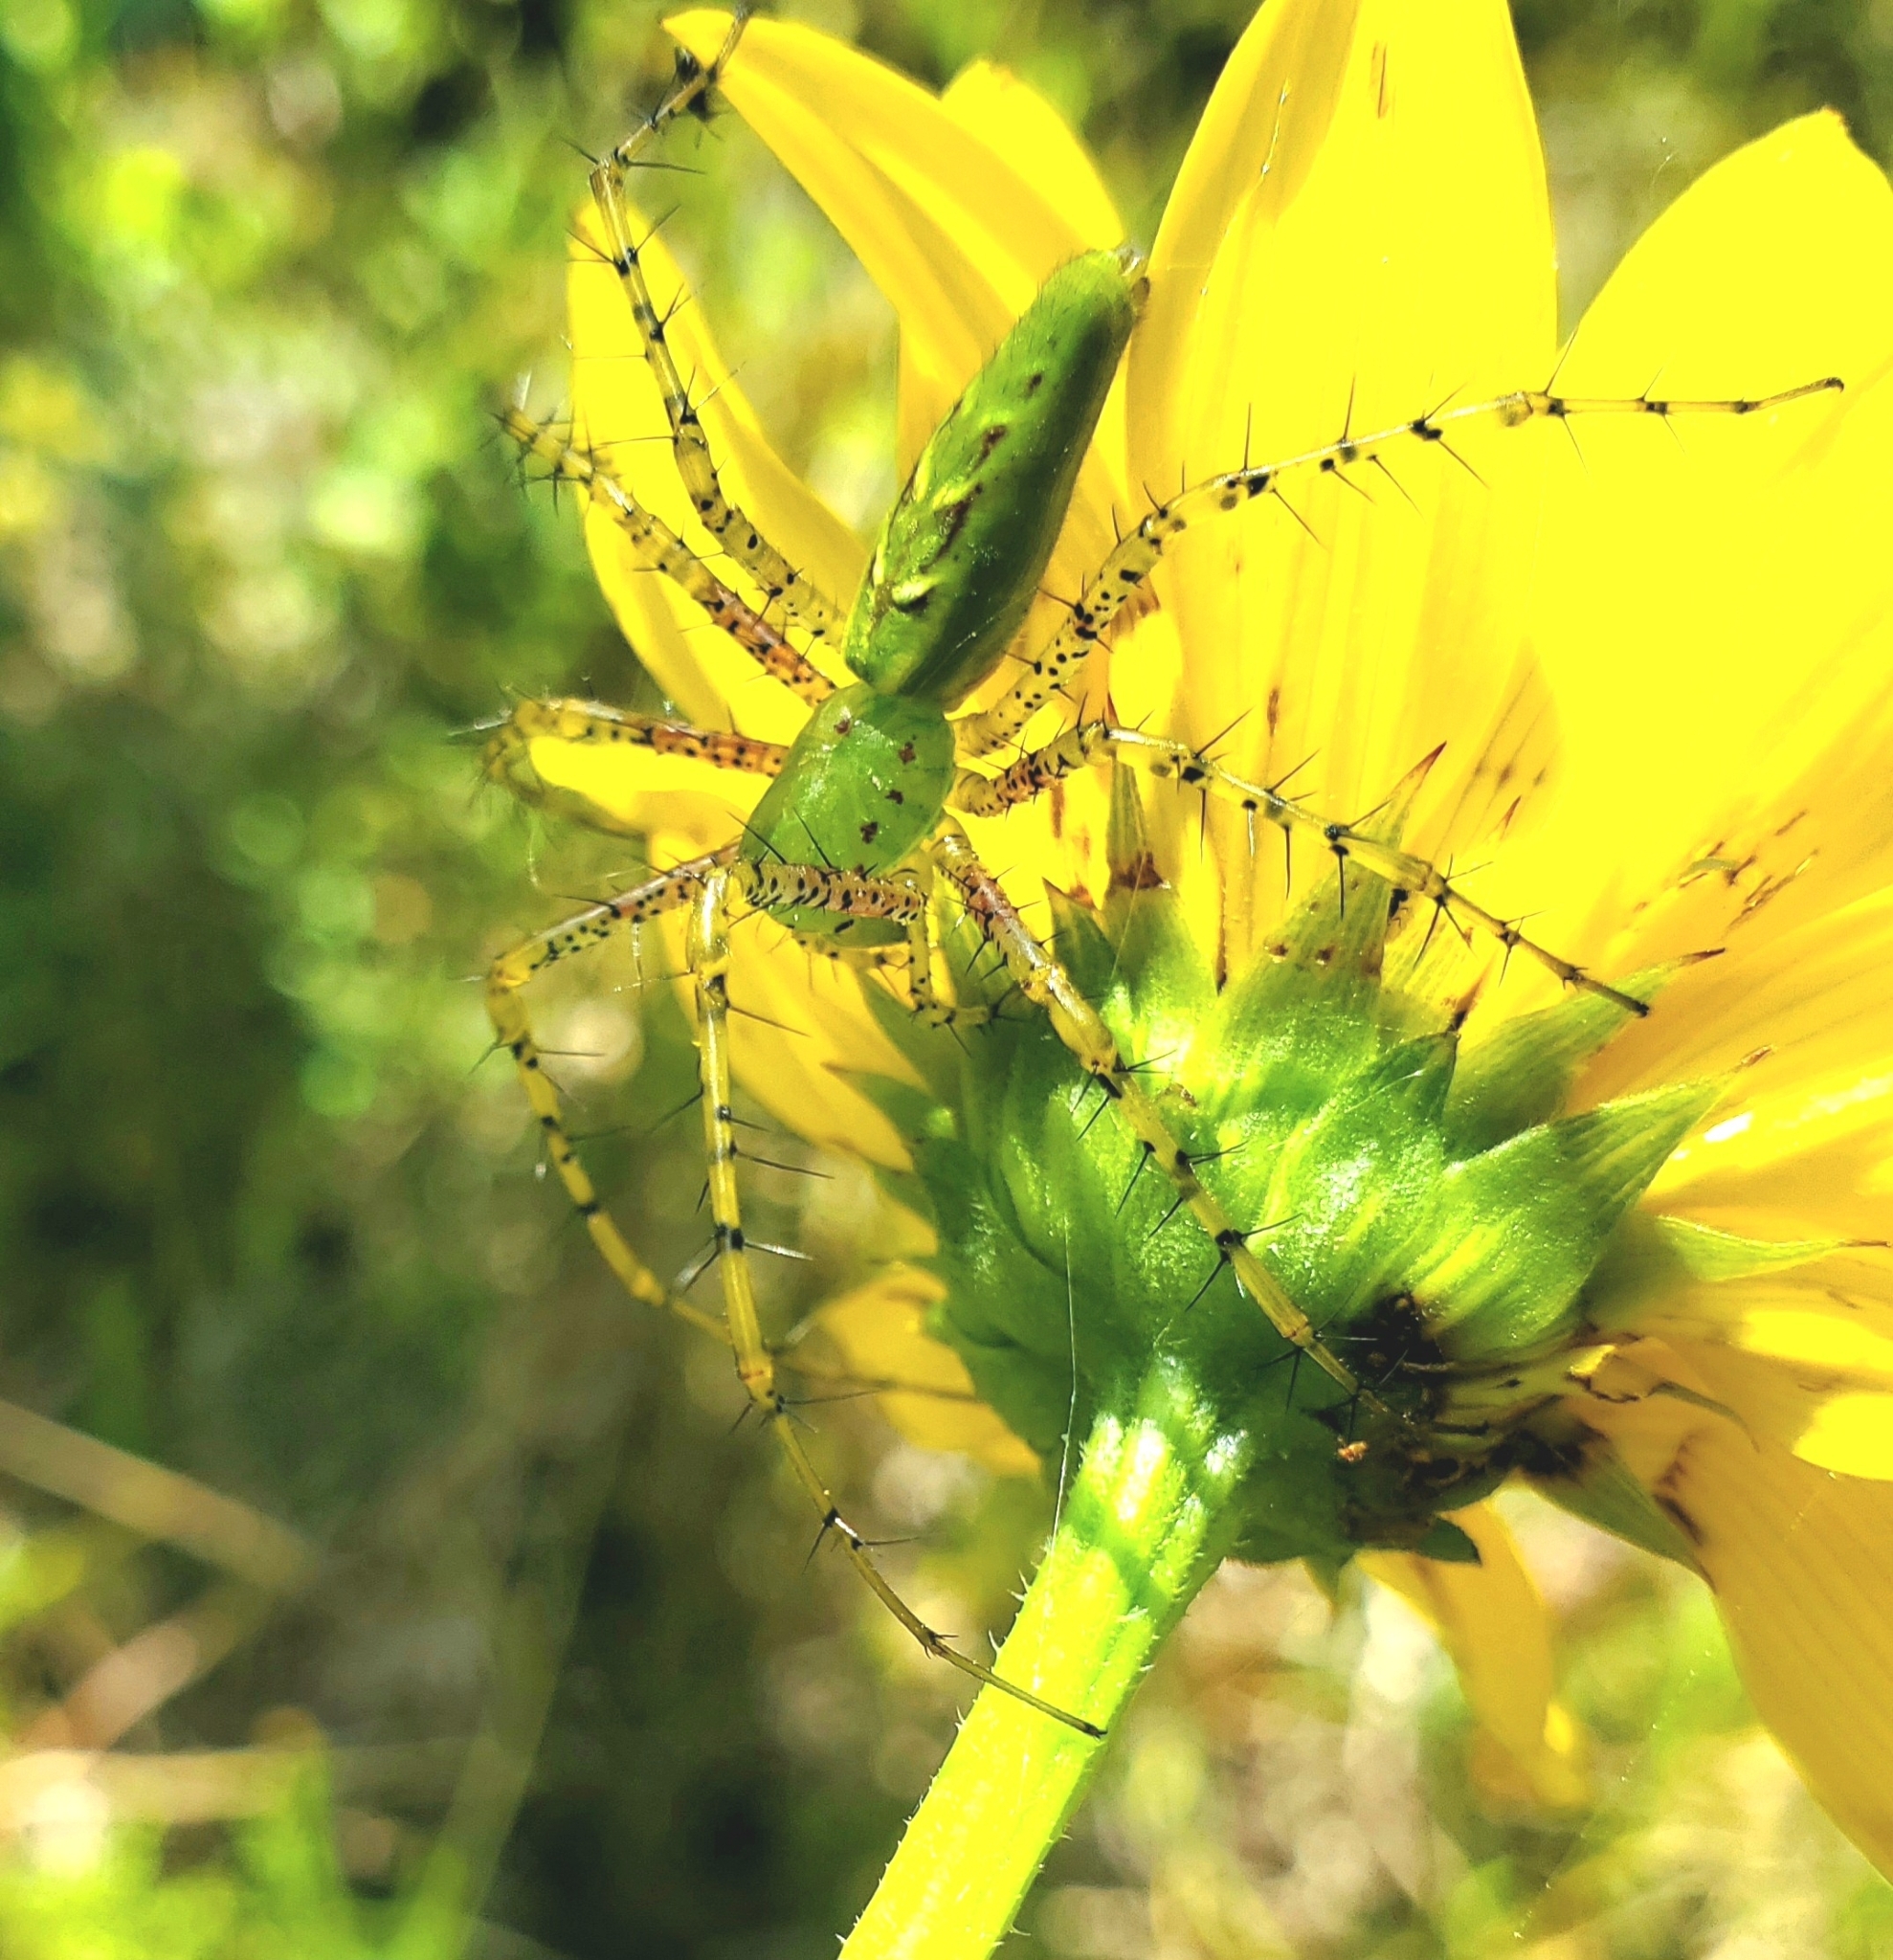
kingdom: Animalia
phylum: Arthropoda
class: Arachnida
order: Araneae
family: Oxyopidae
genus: Peucetia
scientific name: Peucetia viridans
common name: Lynx spiders
